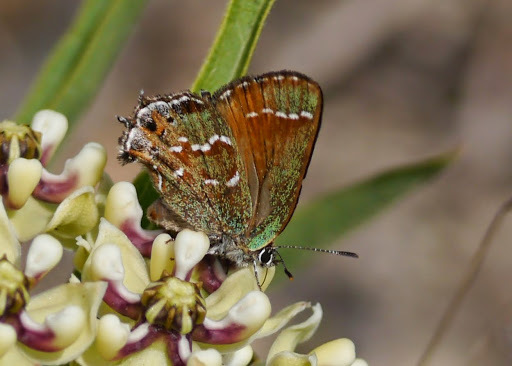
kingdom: Animalia
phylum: Arthropoda
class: Insecta
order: Lepidoptera
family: Lycaenidae
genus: Mitoura
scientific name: Mitoura gryneus
